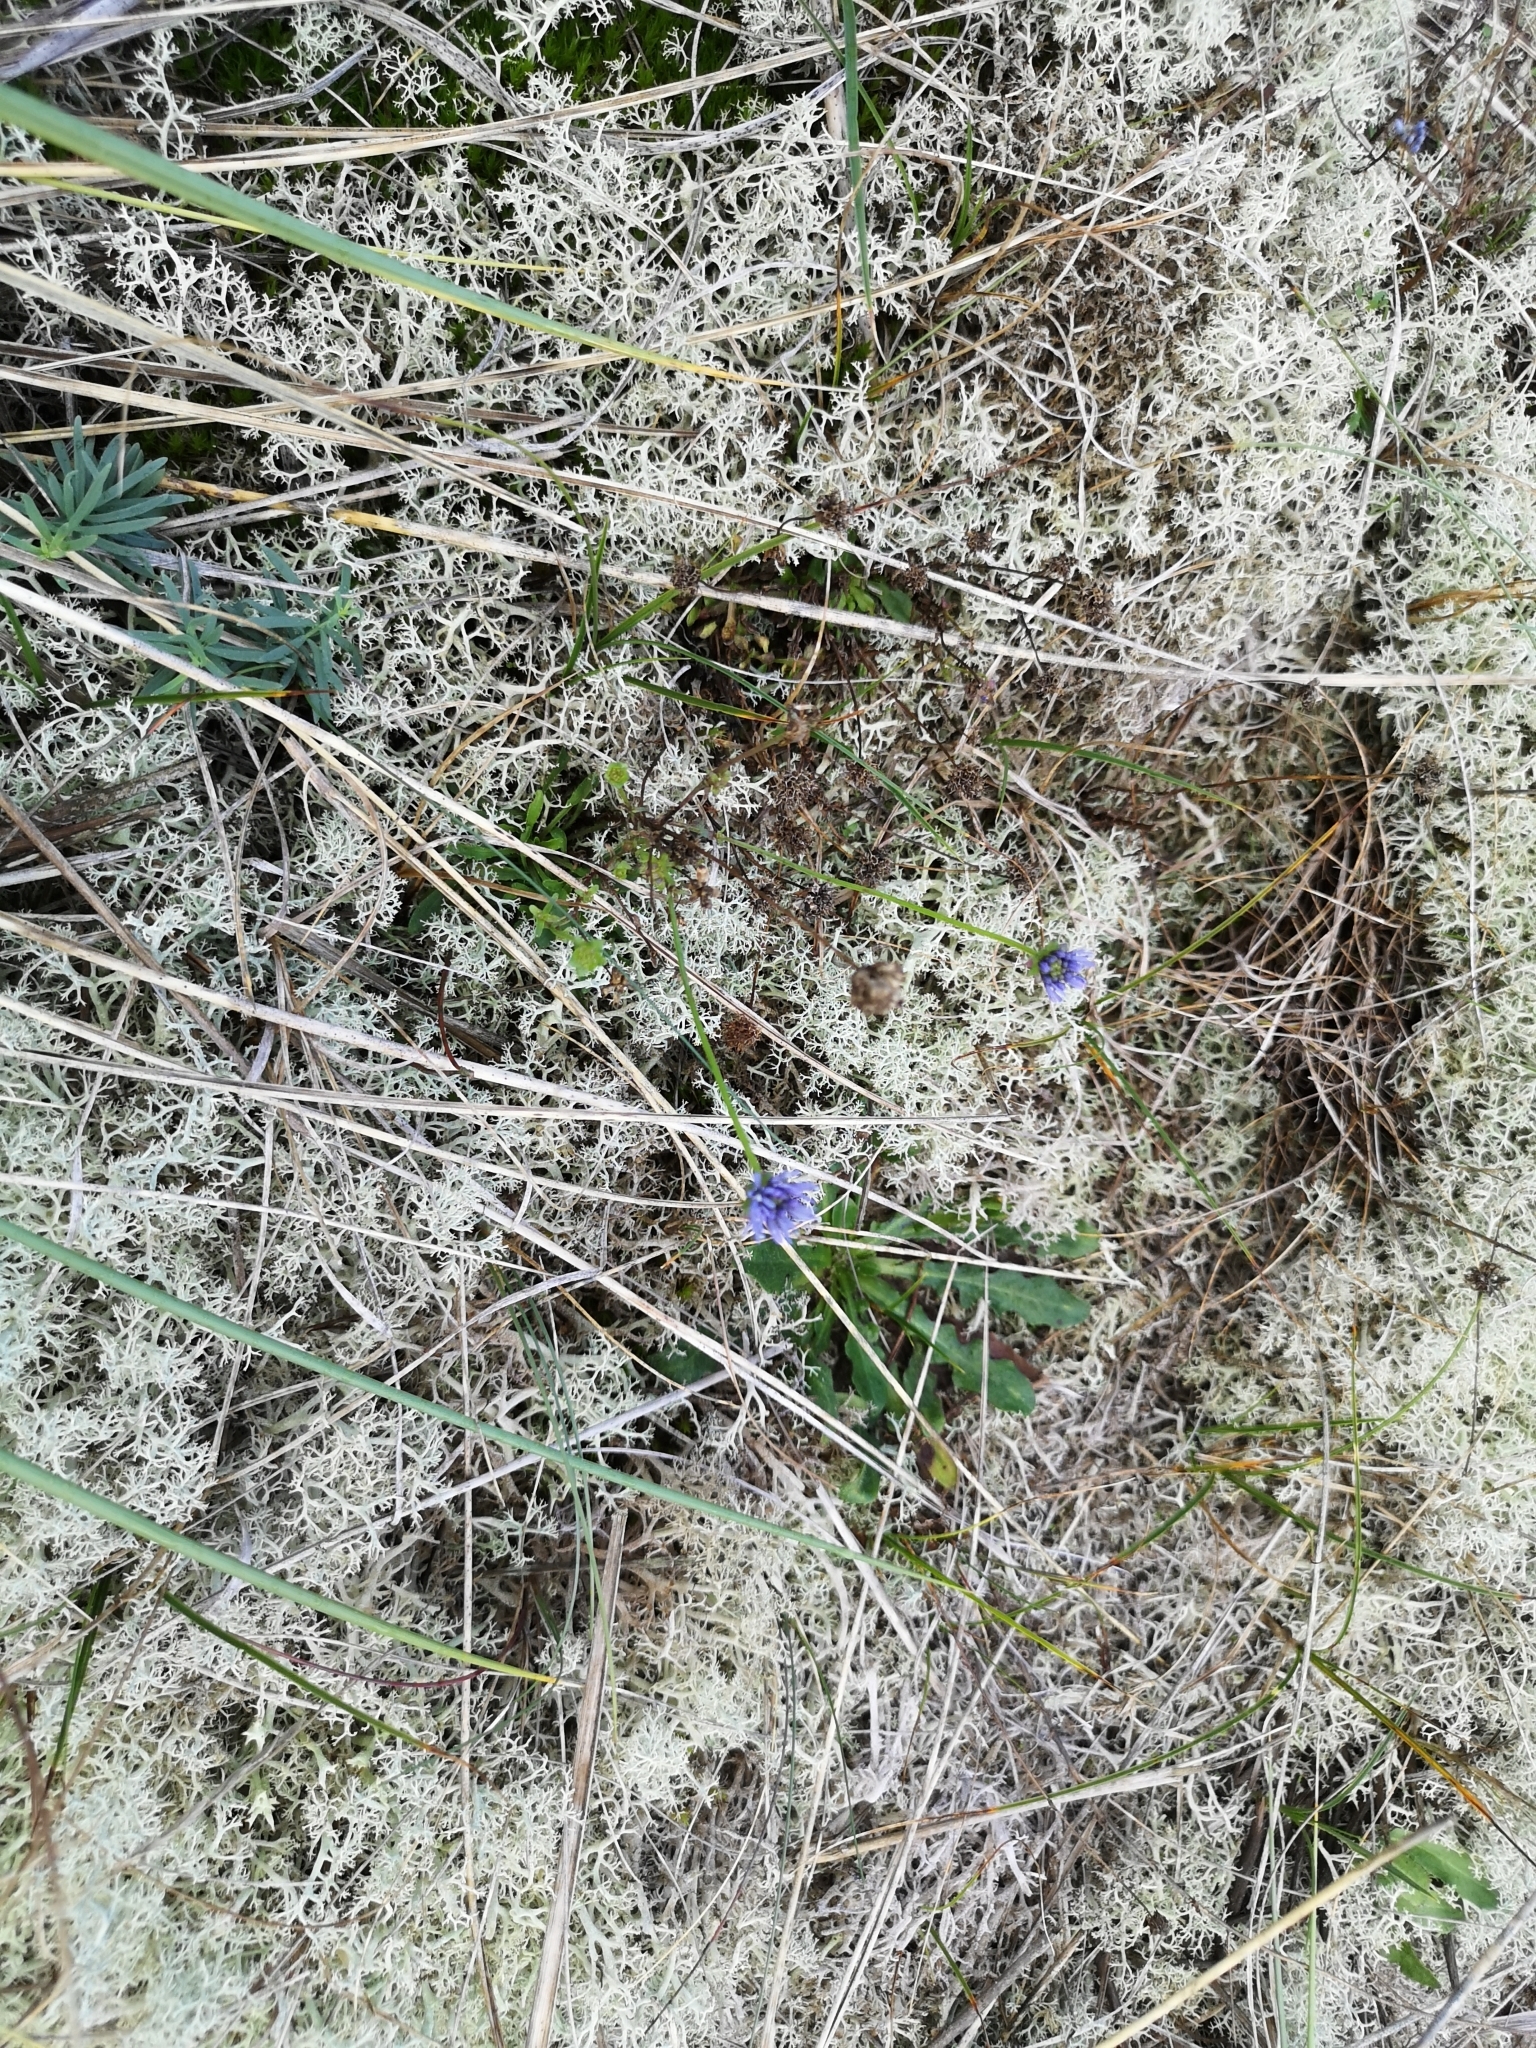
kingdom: Plantae
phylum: Tracheophyta
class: Magnoliopsida
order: Asterales
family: Campanulaceae
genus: Jasione
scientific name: Jasione montana
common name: Sheep's-bit
